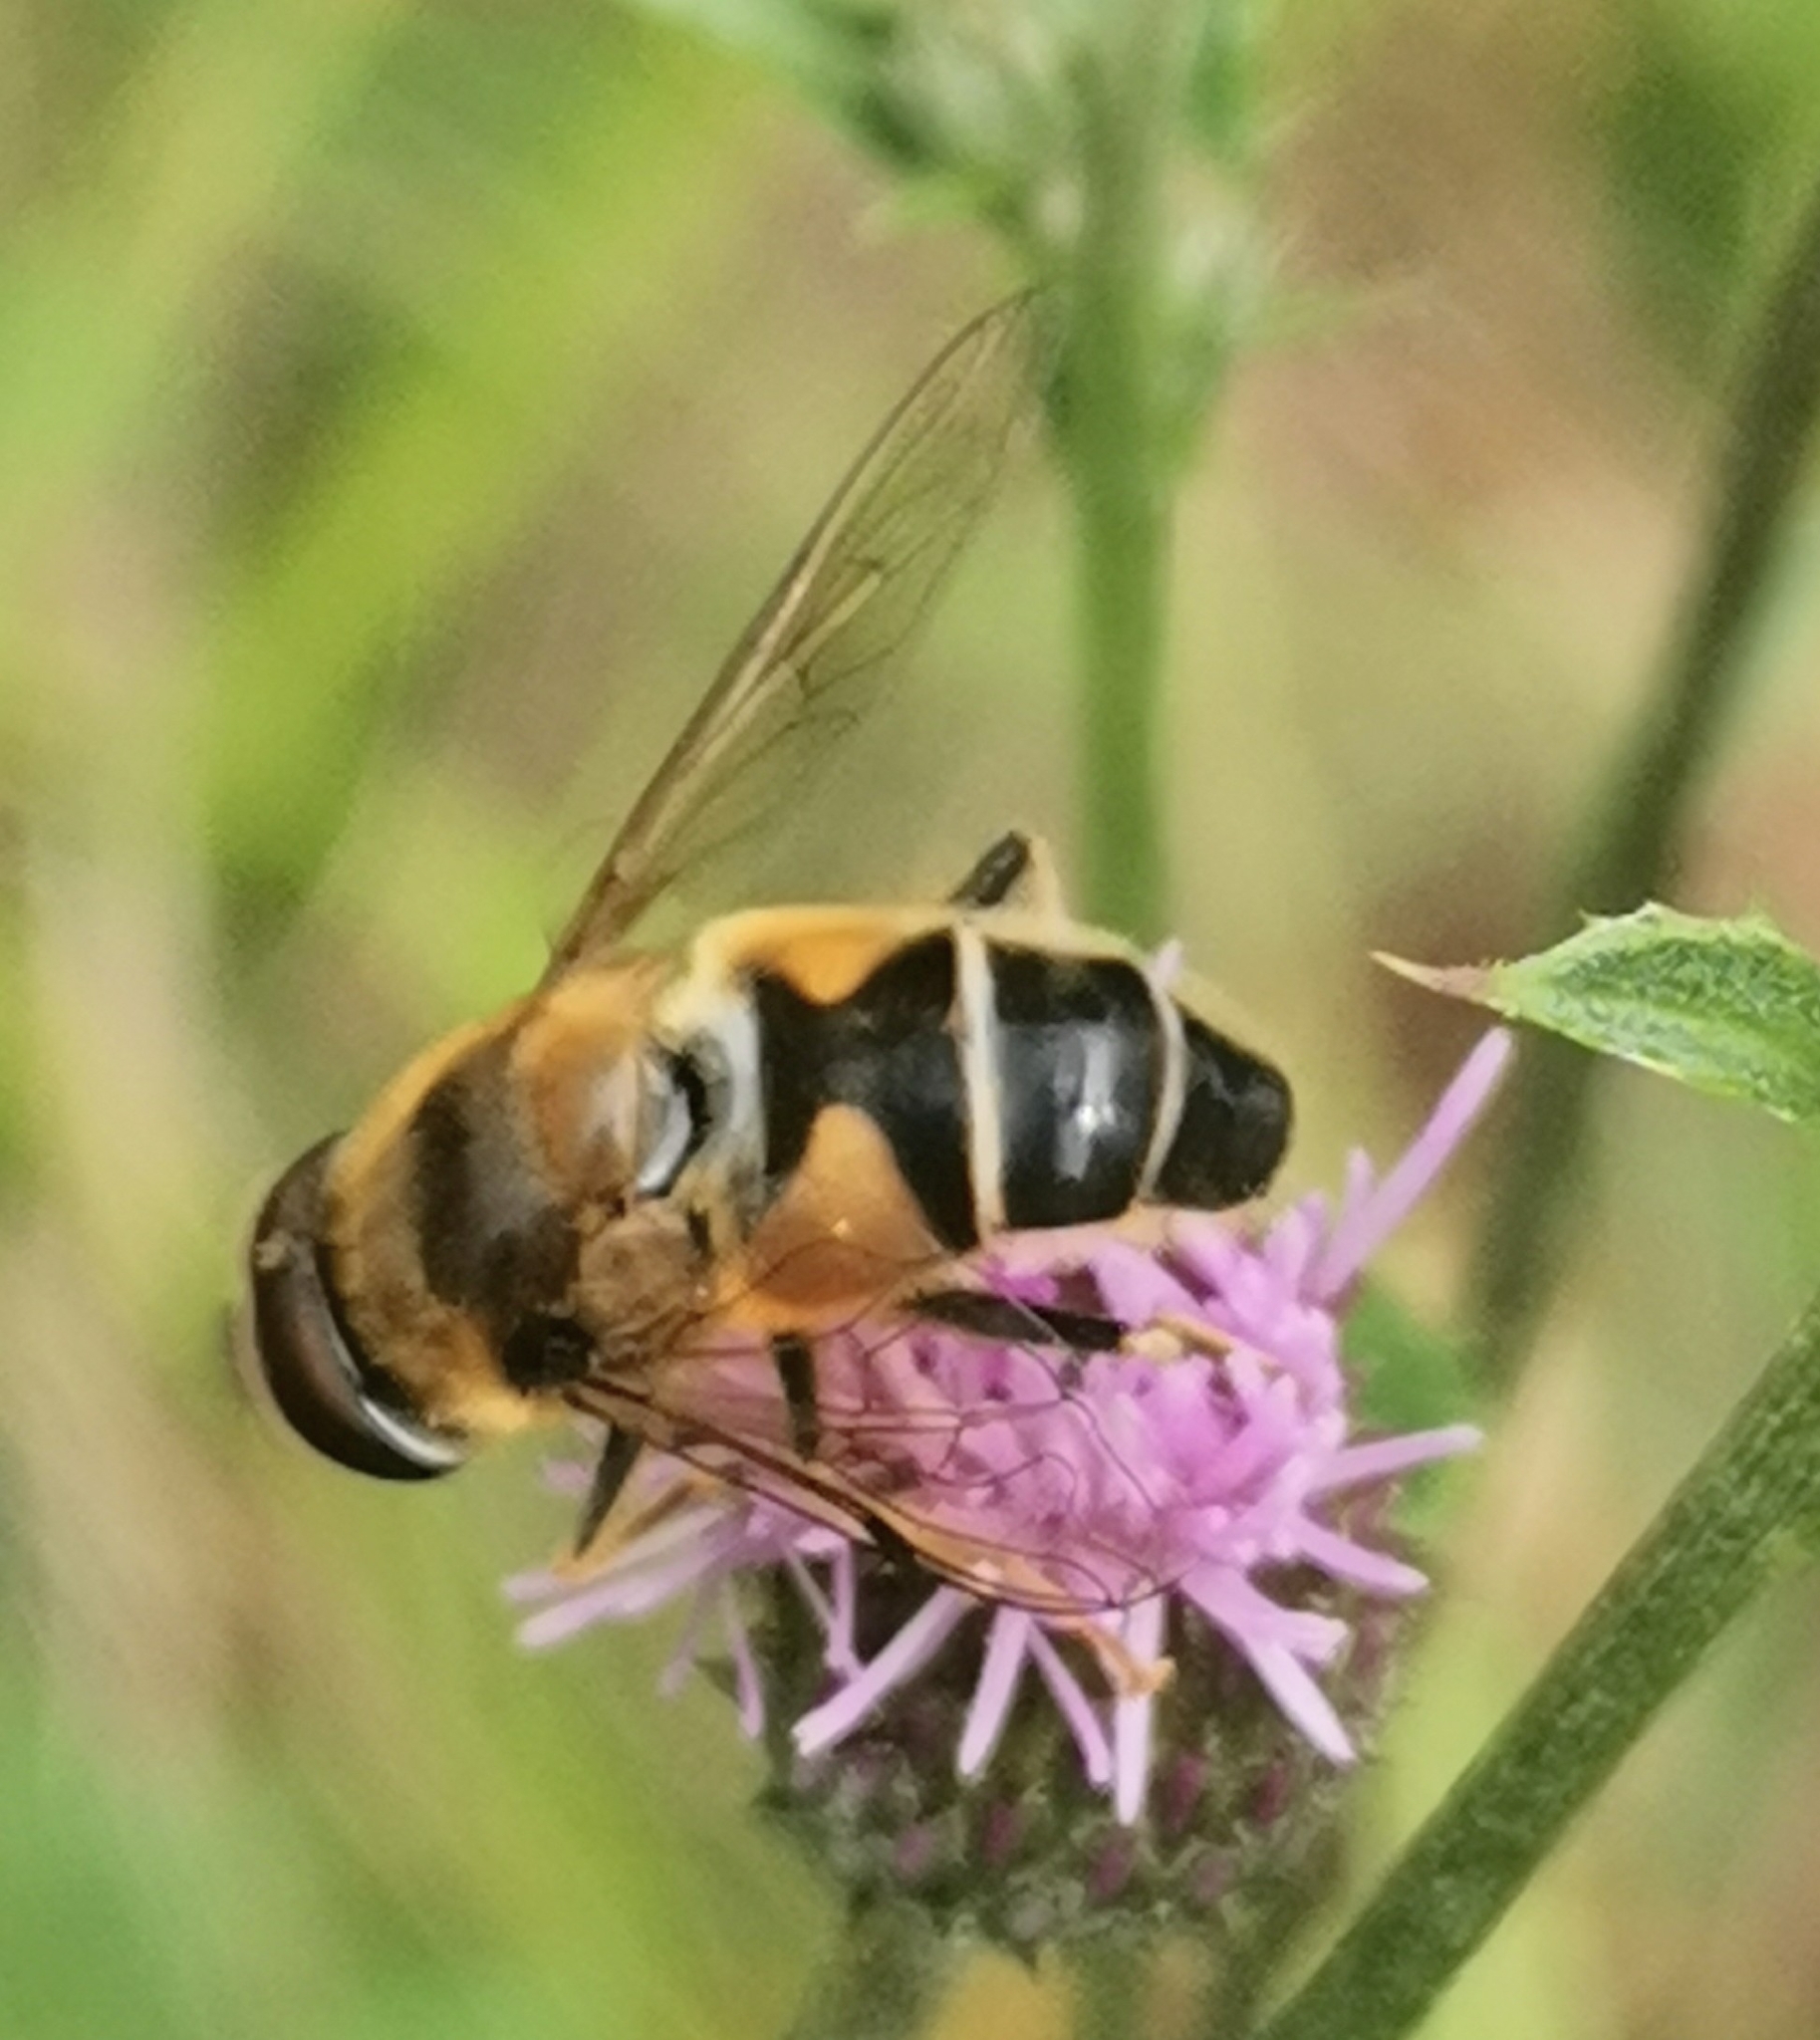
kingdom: Animalia
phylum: Arthropoda
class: Insecta
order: Diptera
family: Syrphidae
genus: Eristalis
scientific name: Eristalis pertinax
